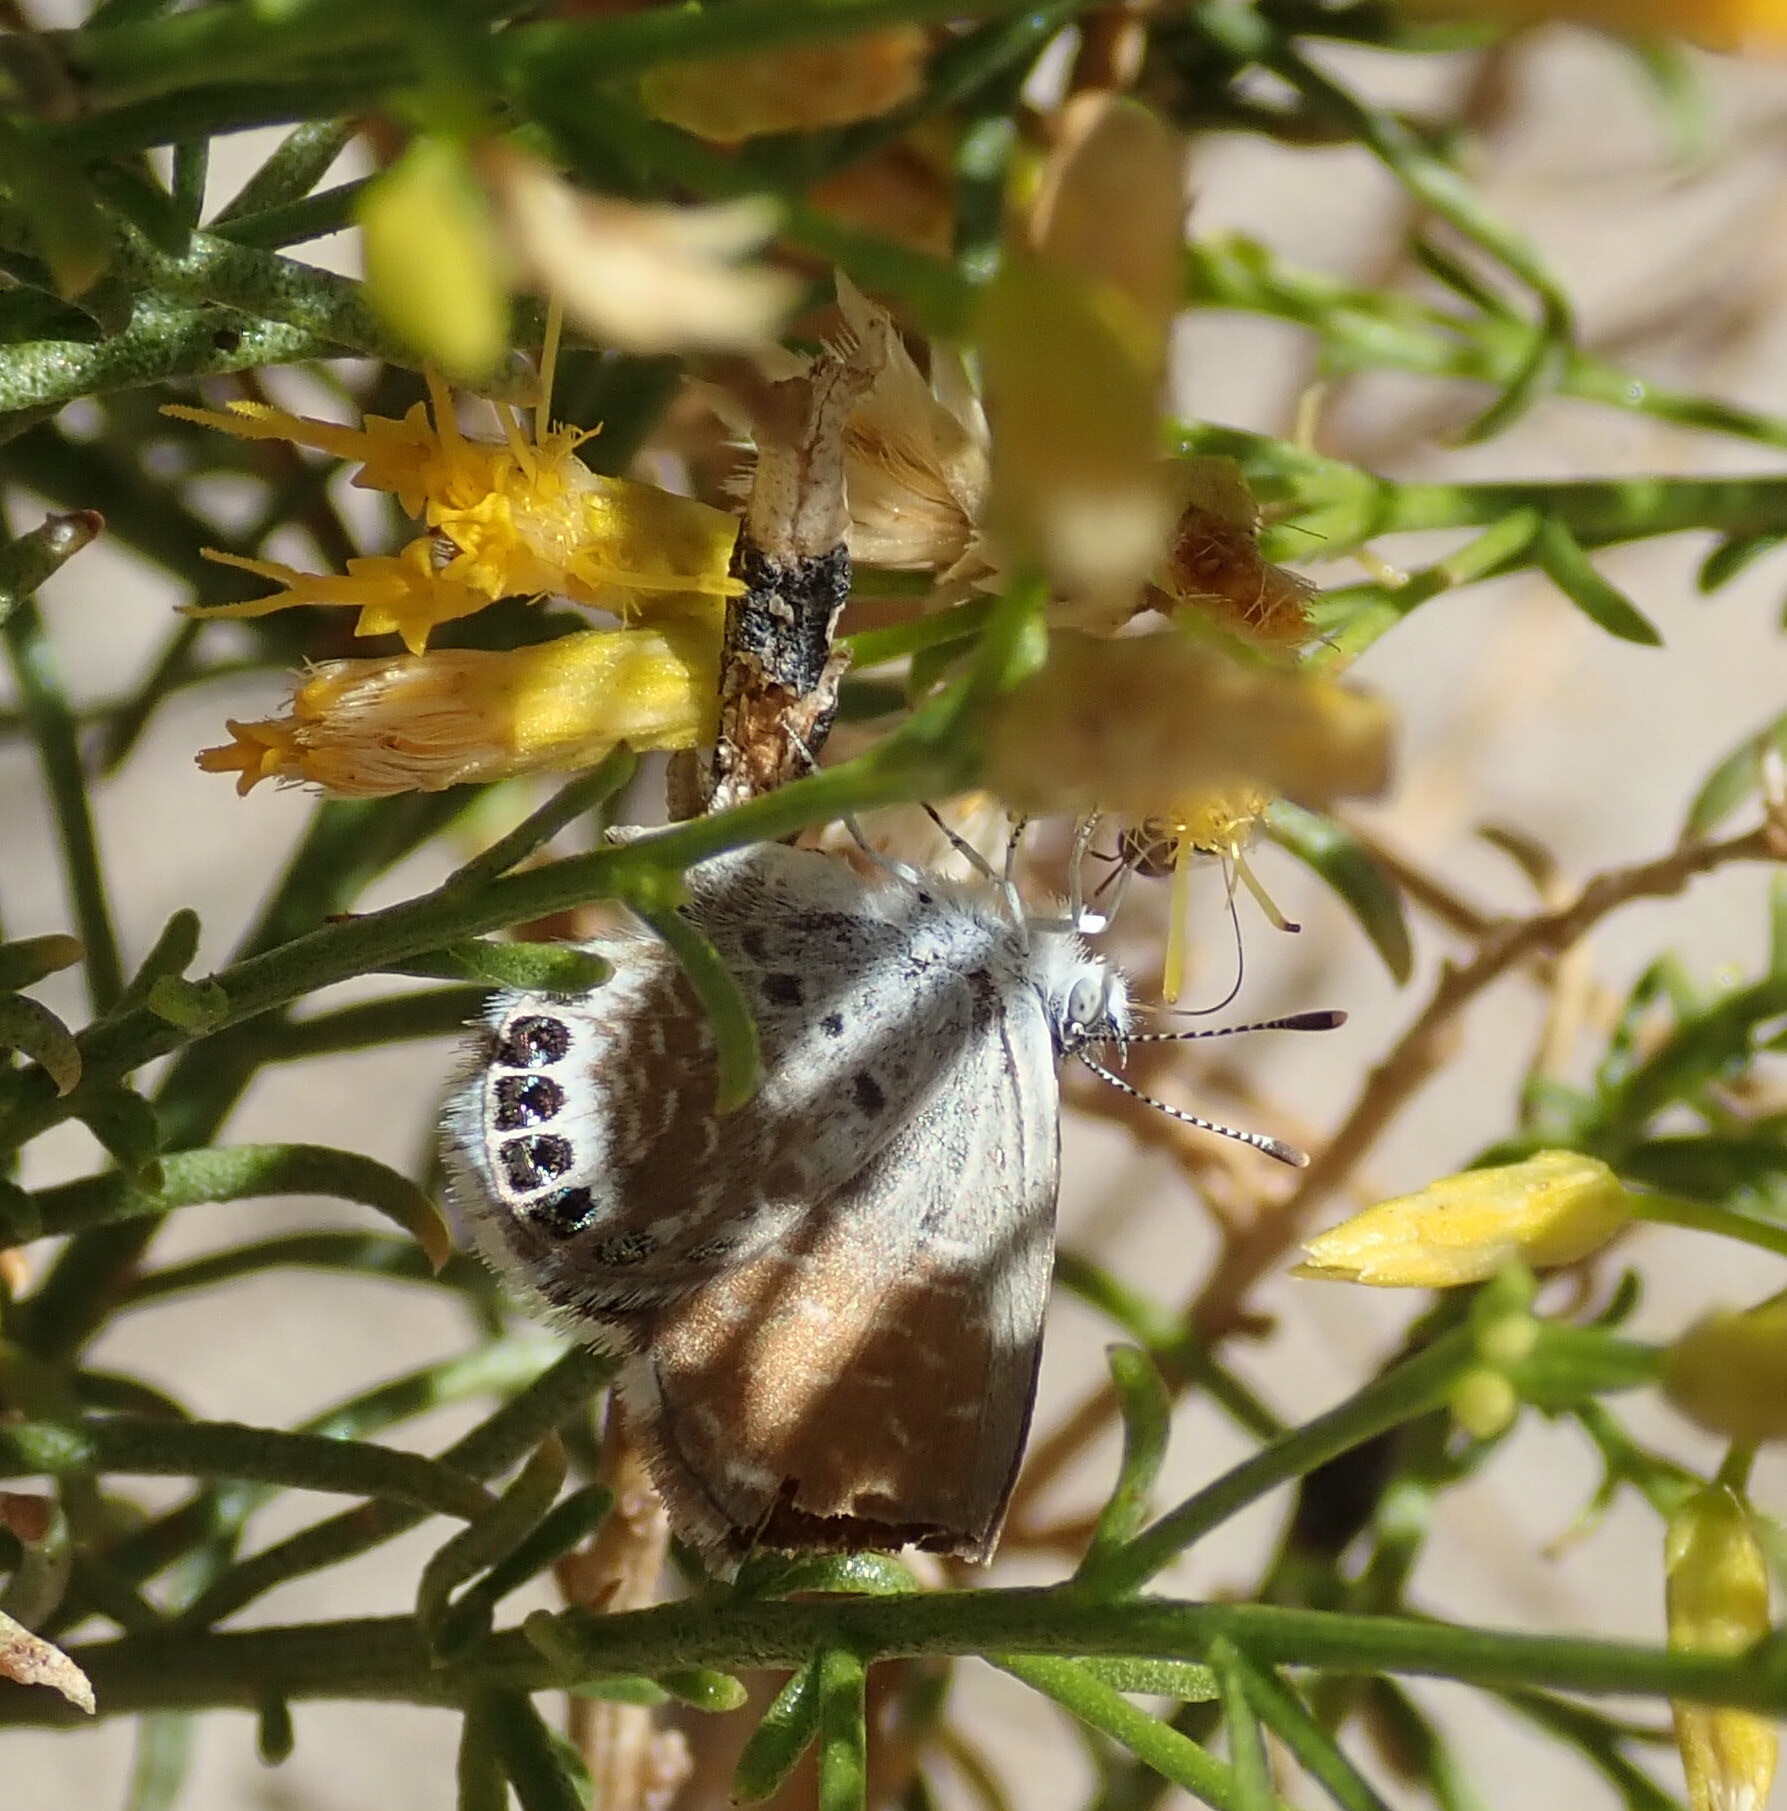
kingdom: Animalia
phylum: Arthropoda
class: Insecta
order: Lepidoptera
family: Lycaenidae
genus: Brephidium
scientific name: Brephidium exilis
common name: Pygmy blue
